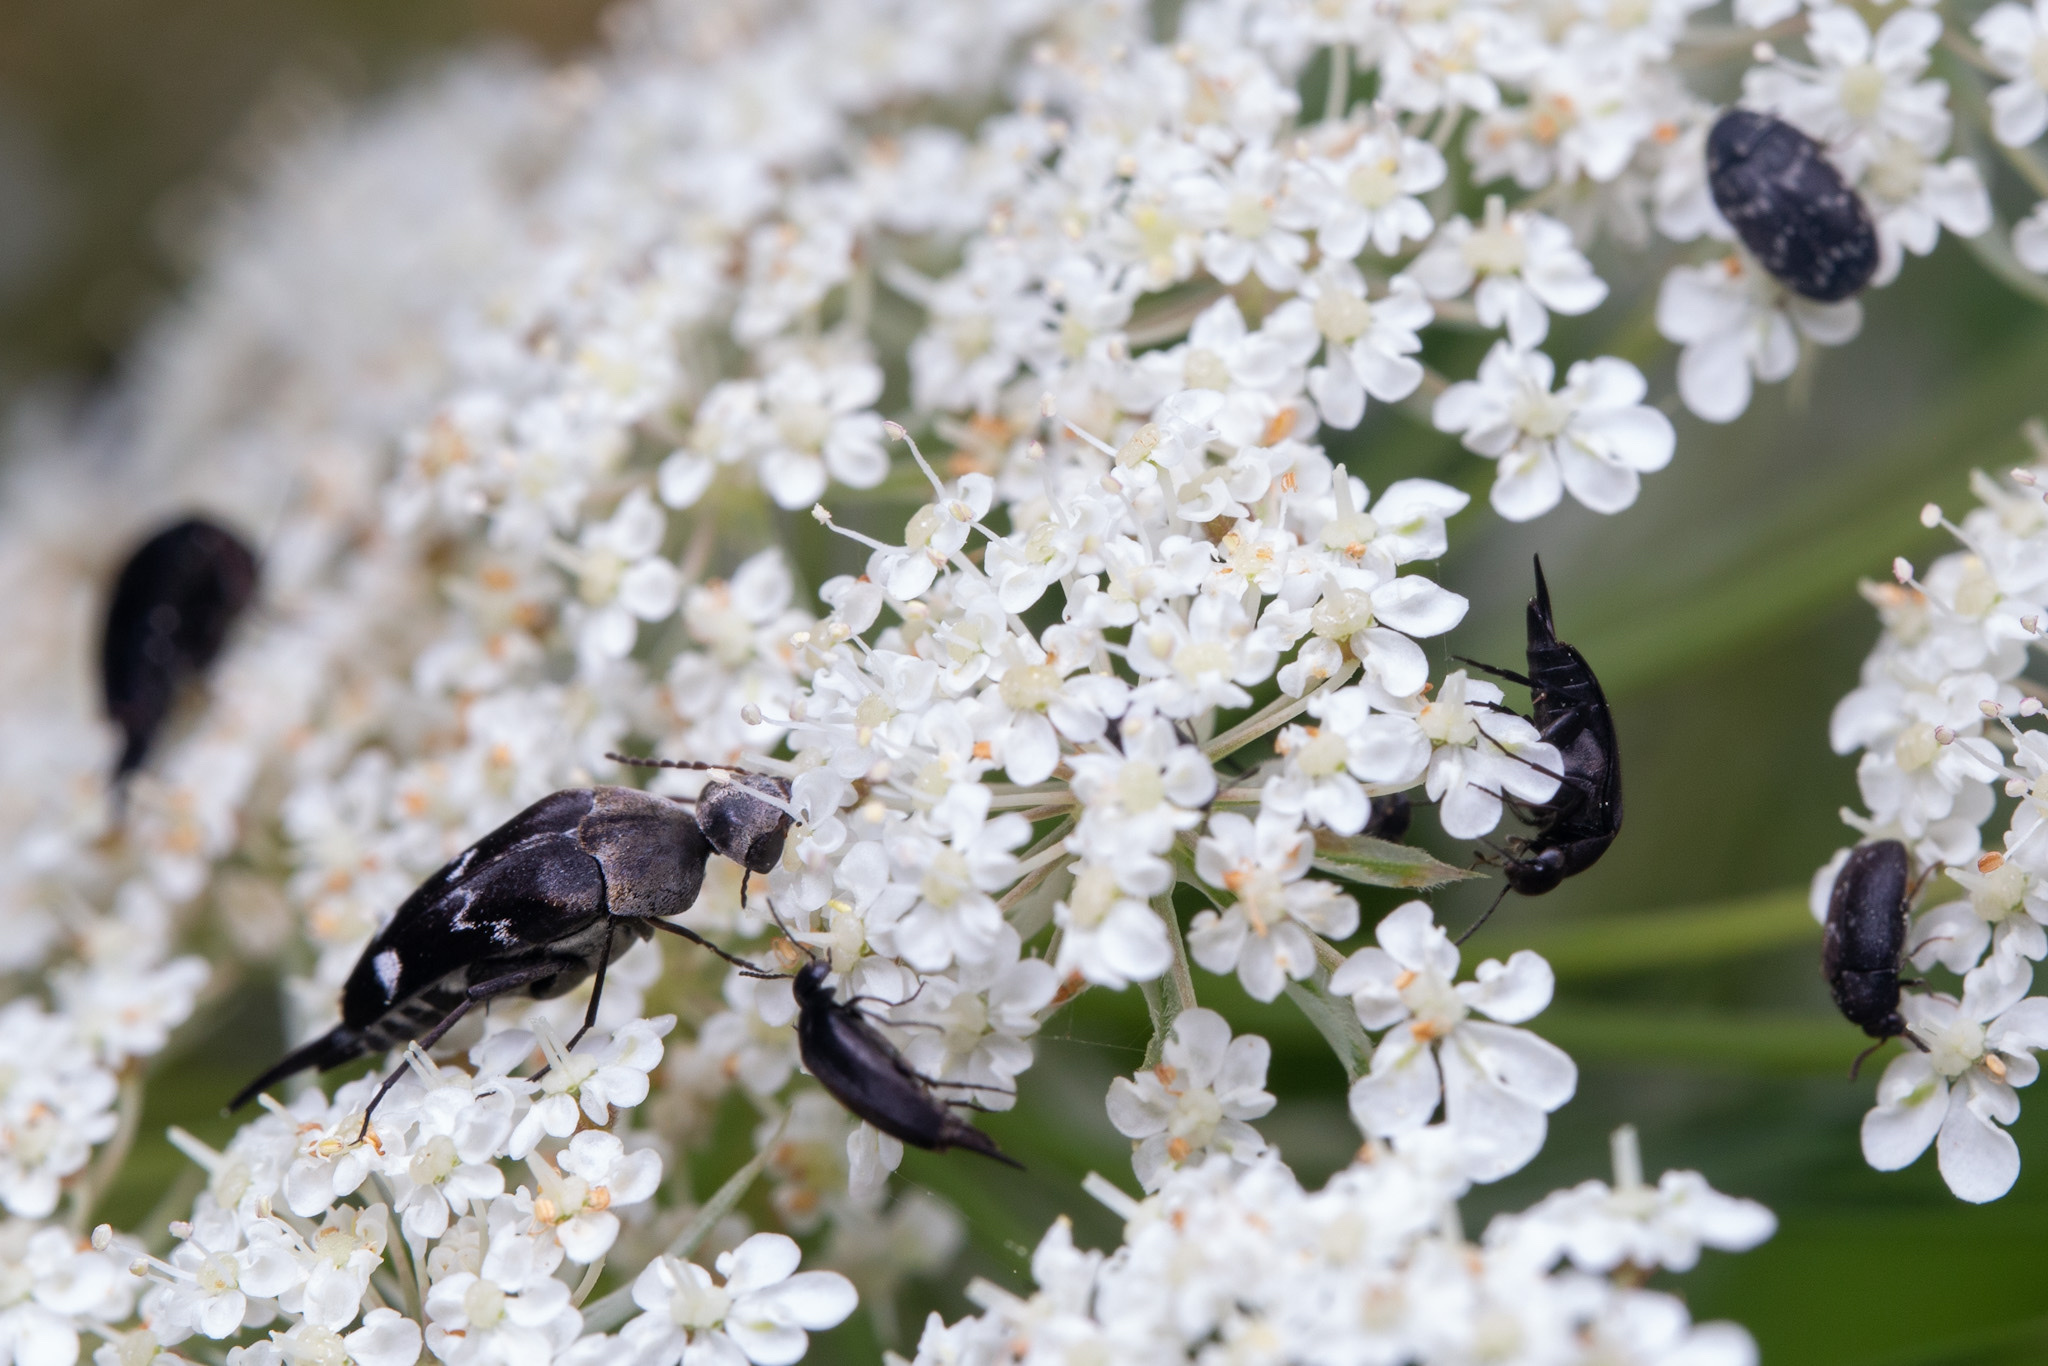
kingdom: Animalia
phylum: Arthropoda
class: Insecta
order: Coleoptera
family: Mordellidae
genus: Mordella
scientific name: Mordella
